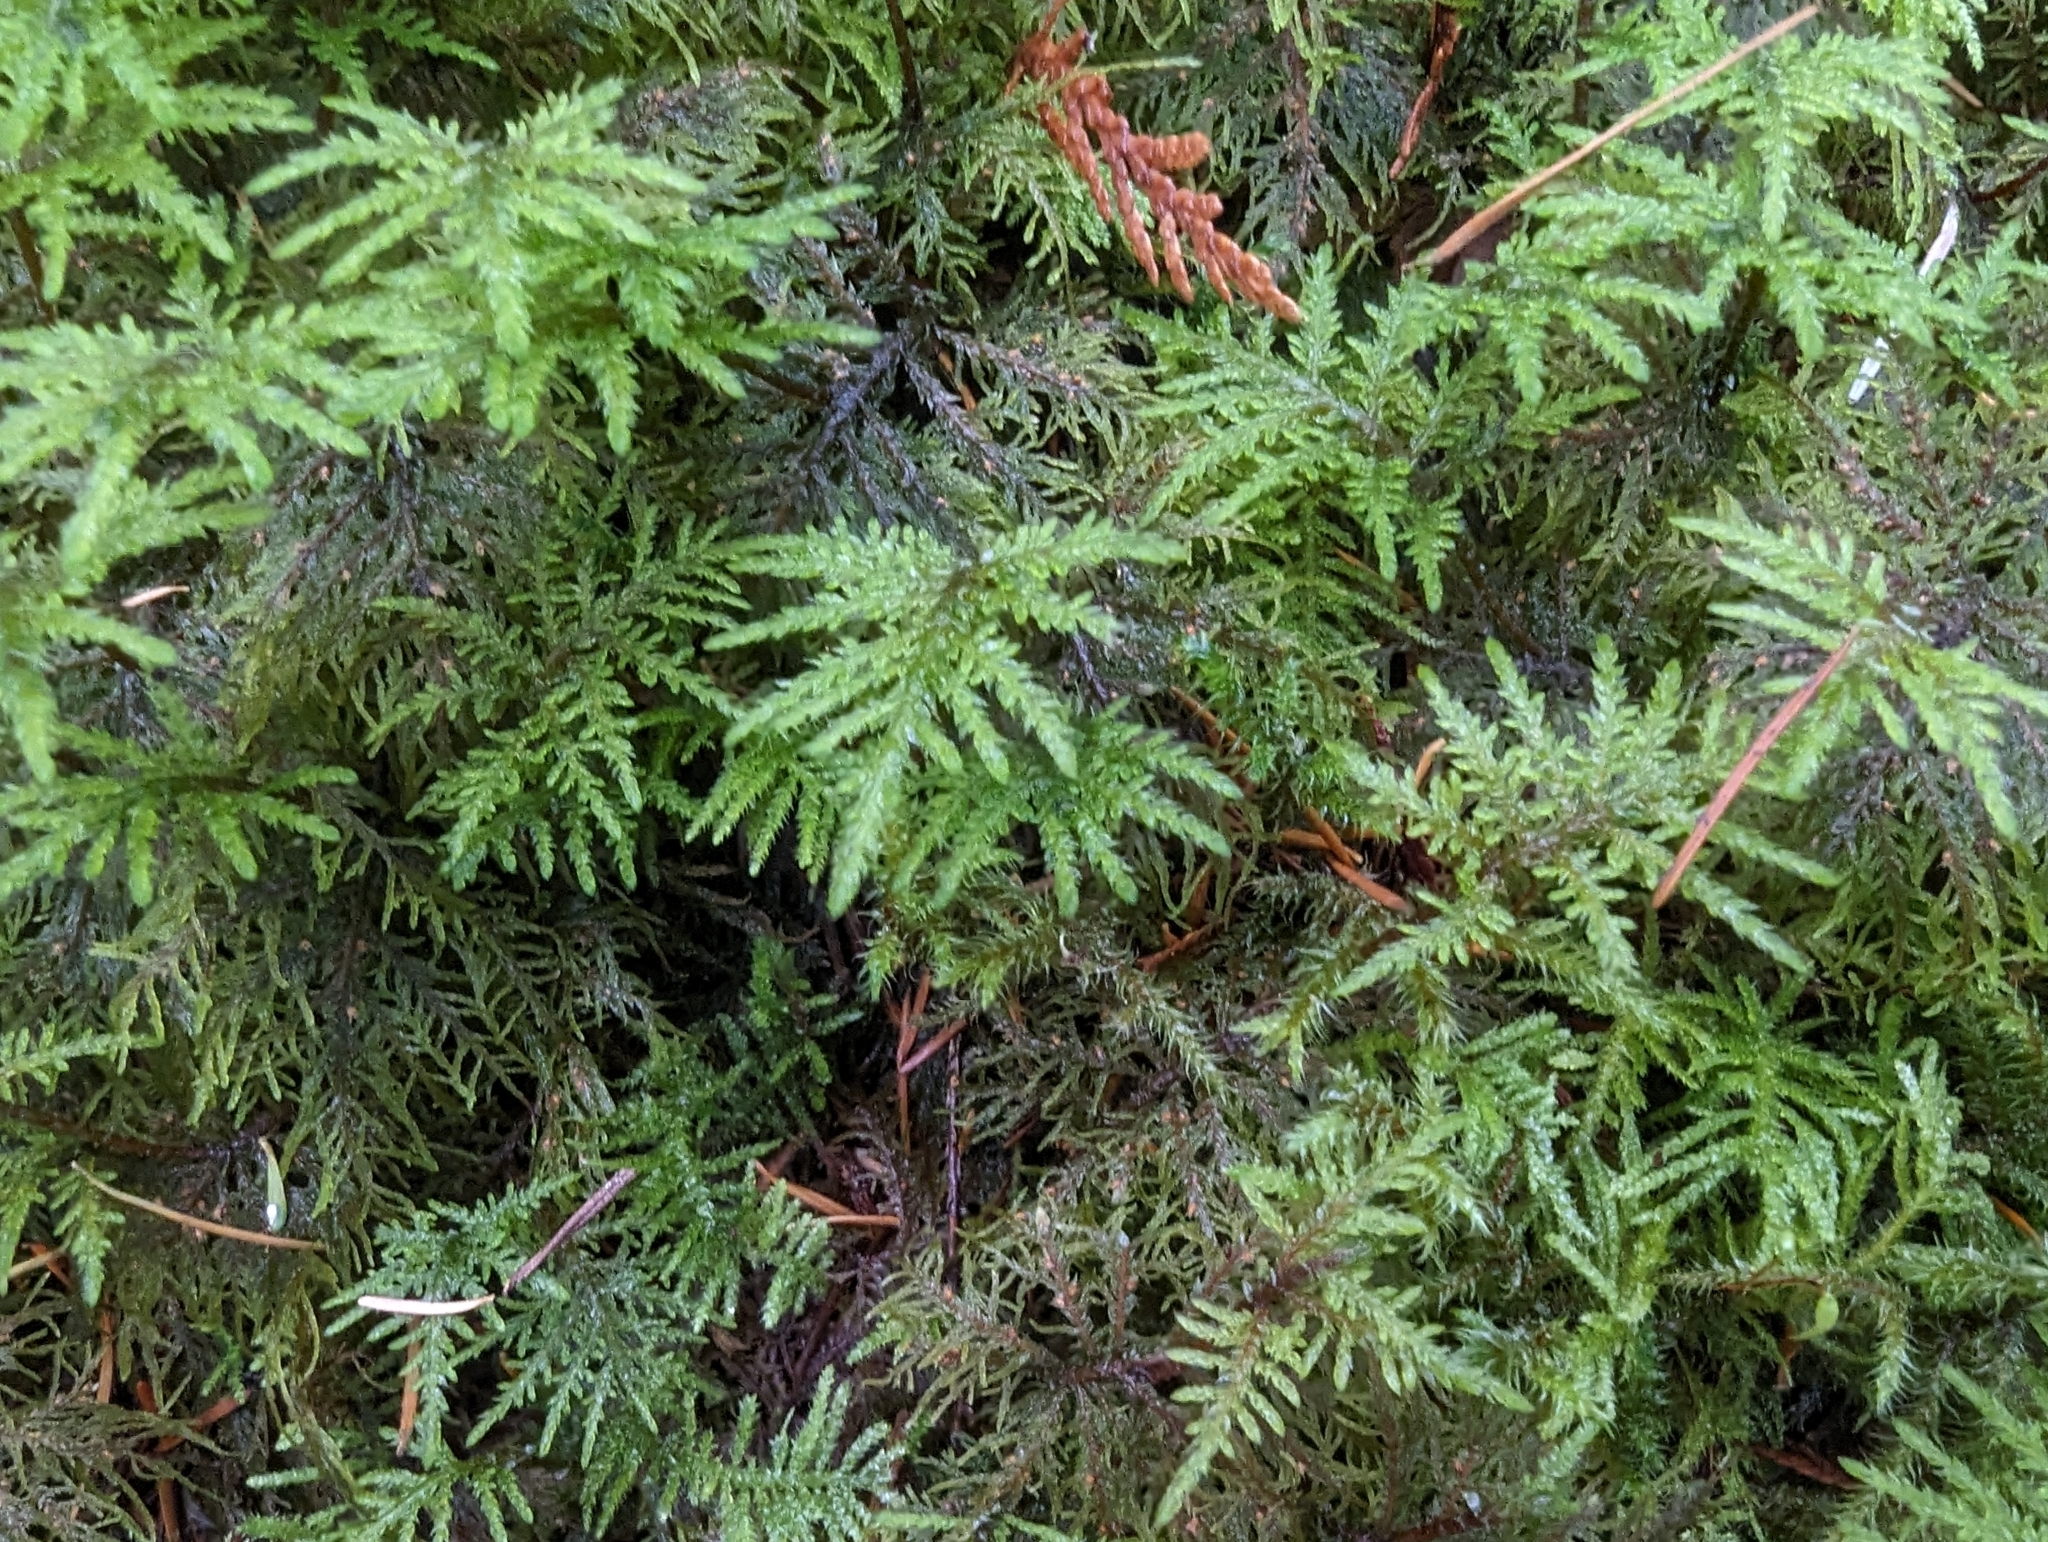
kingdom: Plantae
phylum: Bryophyta
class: Bryopsida
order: Hypnales
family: Hylocomiaceae
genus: Hylocomium
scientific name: Hylocomium splendens
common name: Stairstep moss
